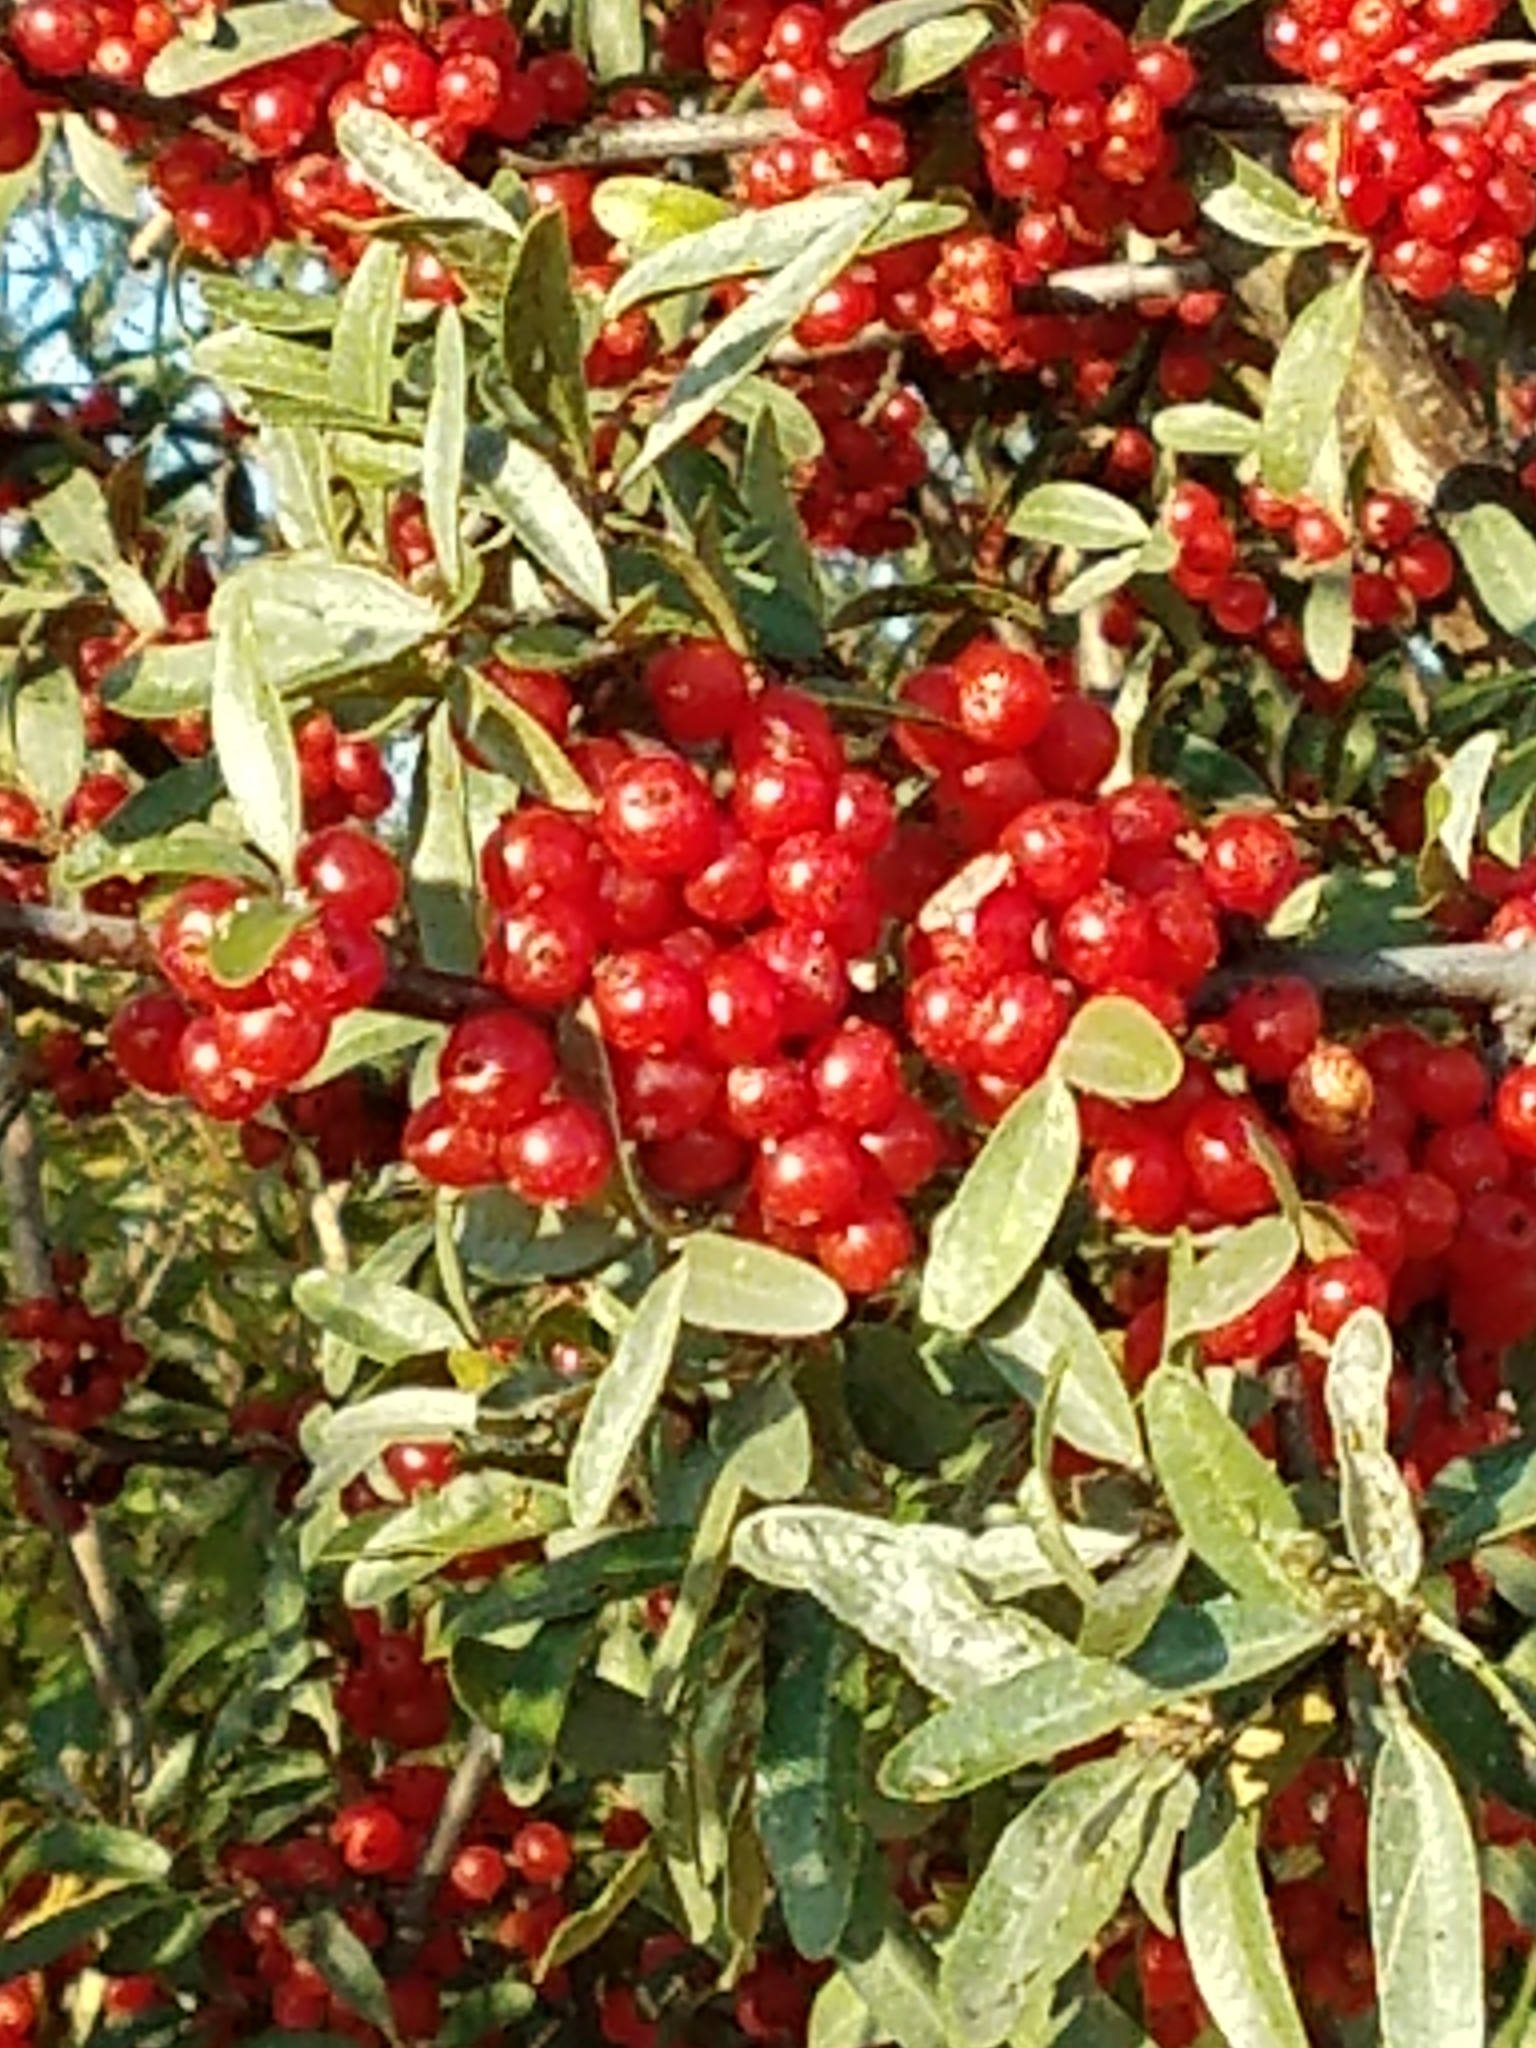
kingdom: Plantae
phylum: Tracheophyta
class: Magnoliopsida
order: Rosales
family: Elaeagnaceae
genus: Shepherdia
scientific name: Shepherdia argentea
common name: Silver buffaloberry
